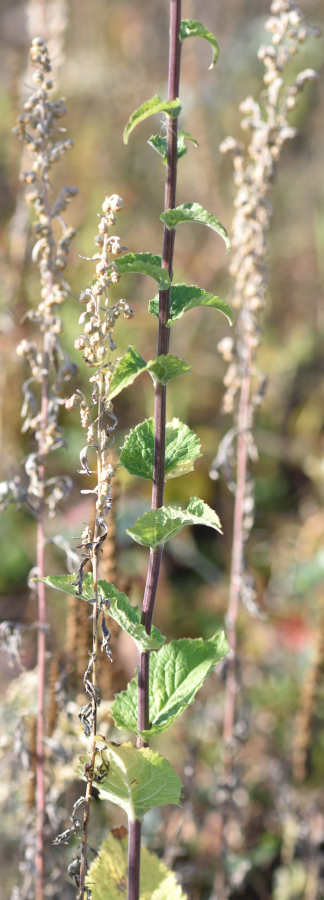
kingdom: Plantae
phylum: Tracheophyta
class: Magnoliopsida
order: Asterales
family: Campanulaceae
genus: Campanula
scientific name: Campanula bononiensis
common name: Pale bellflower
